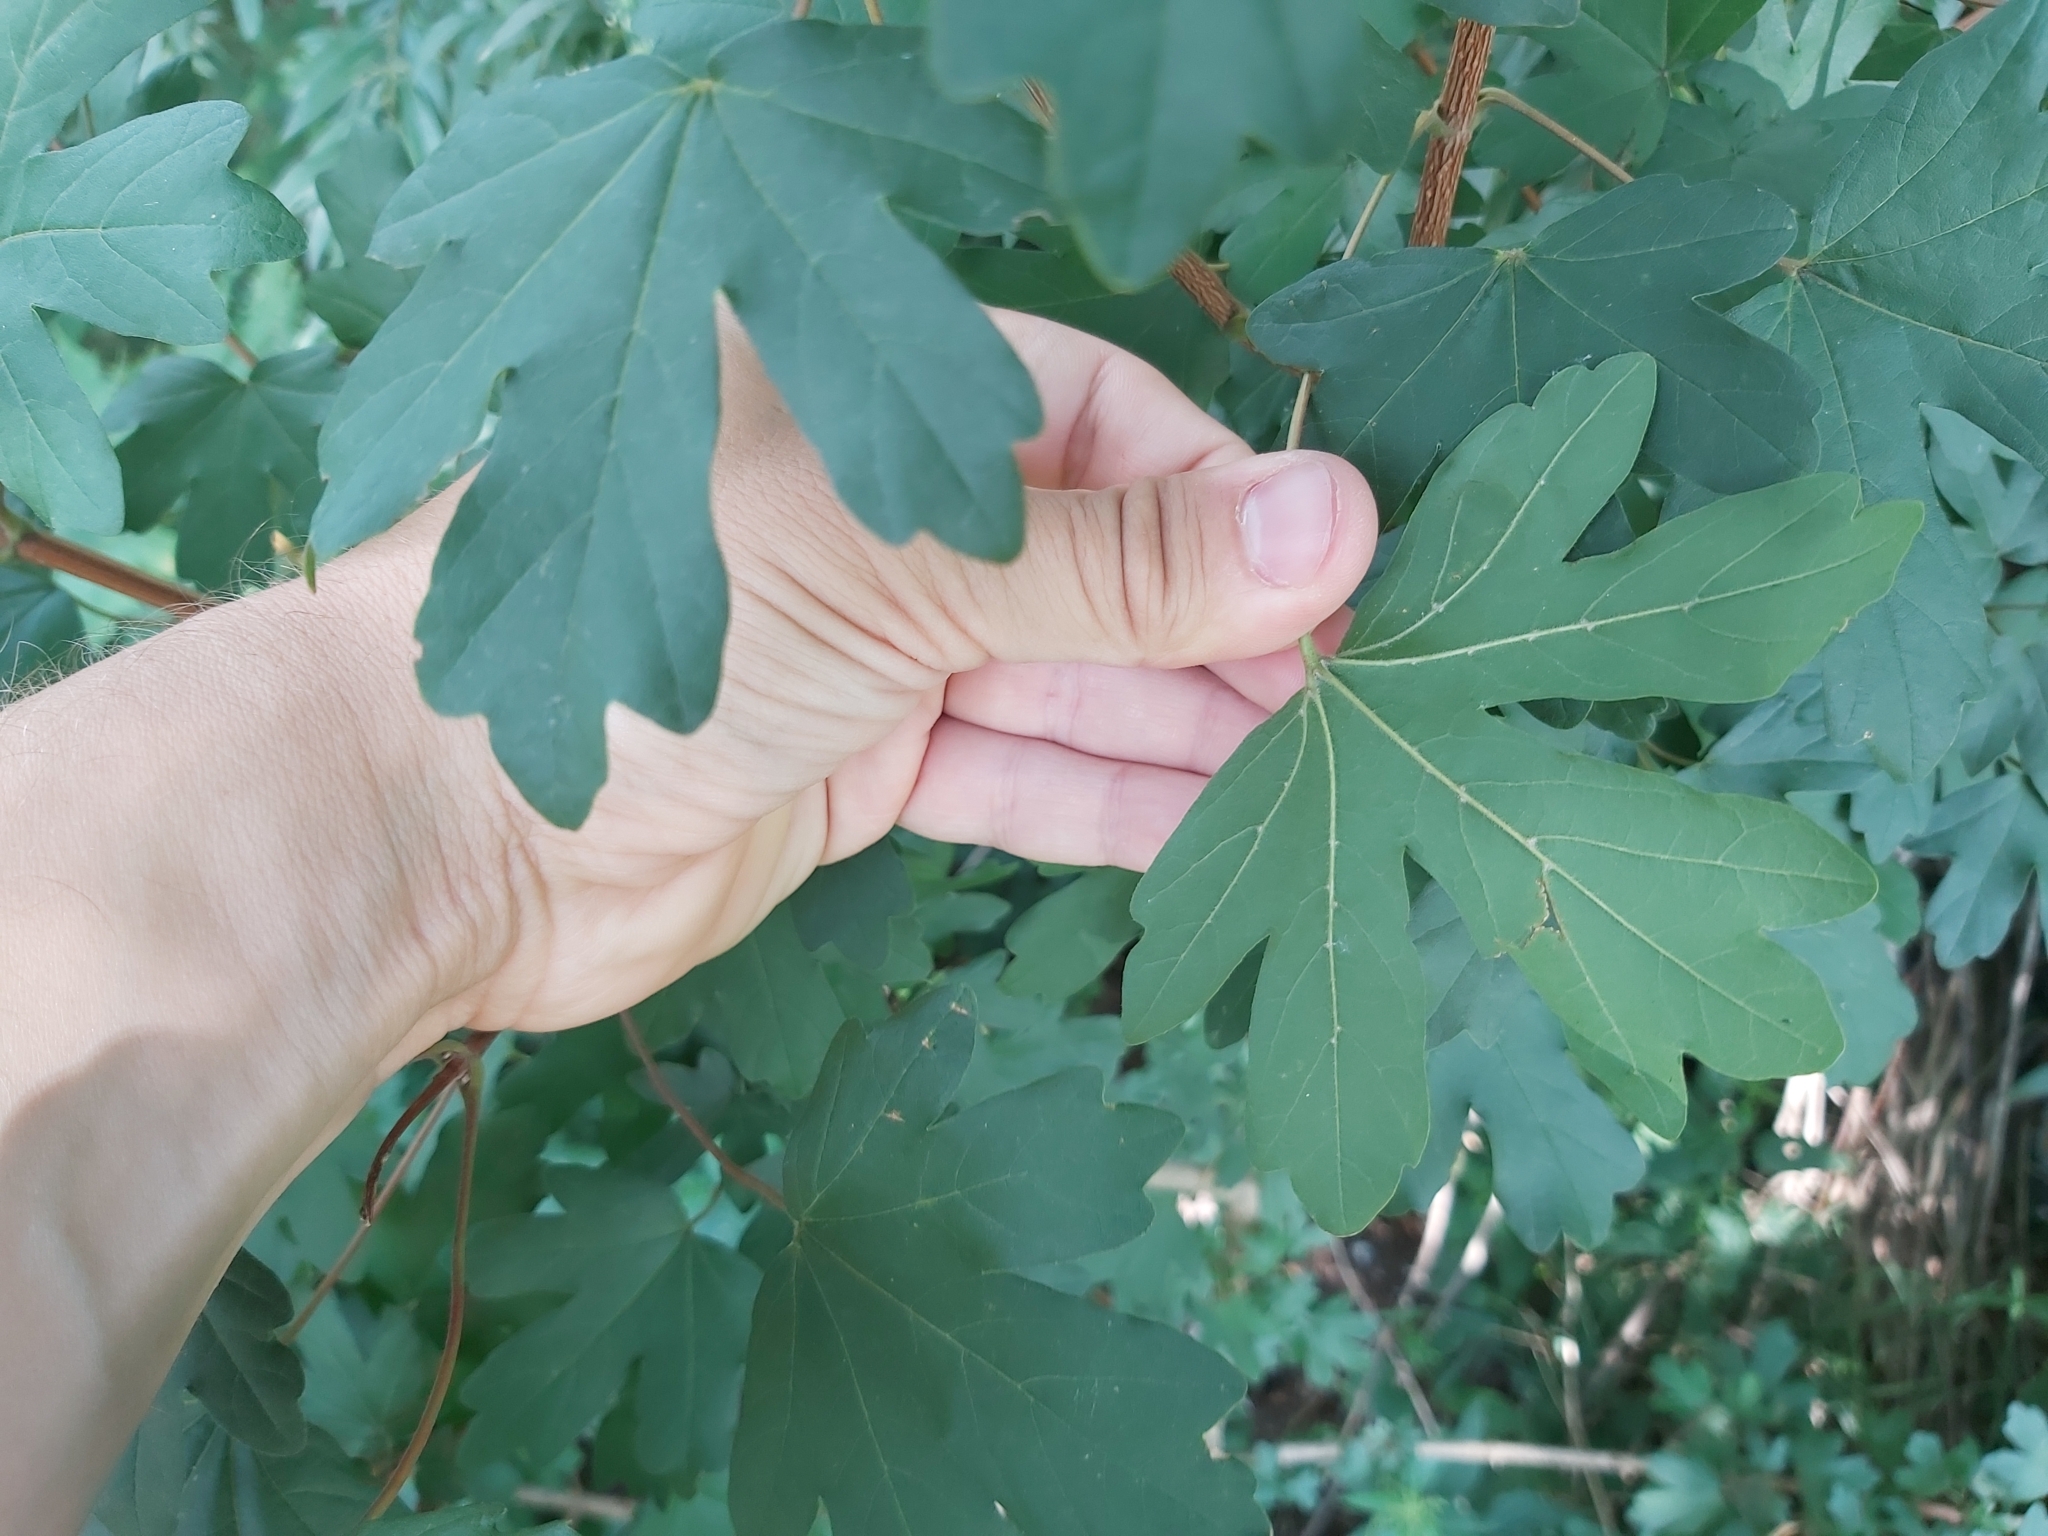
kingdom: Plantae
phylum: Tracheophyta
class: Magnoliopsida
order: Sapindales
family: Sapindaceae
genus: Acer
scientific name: Acer campestre
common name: Field maple
